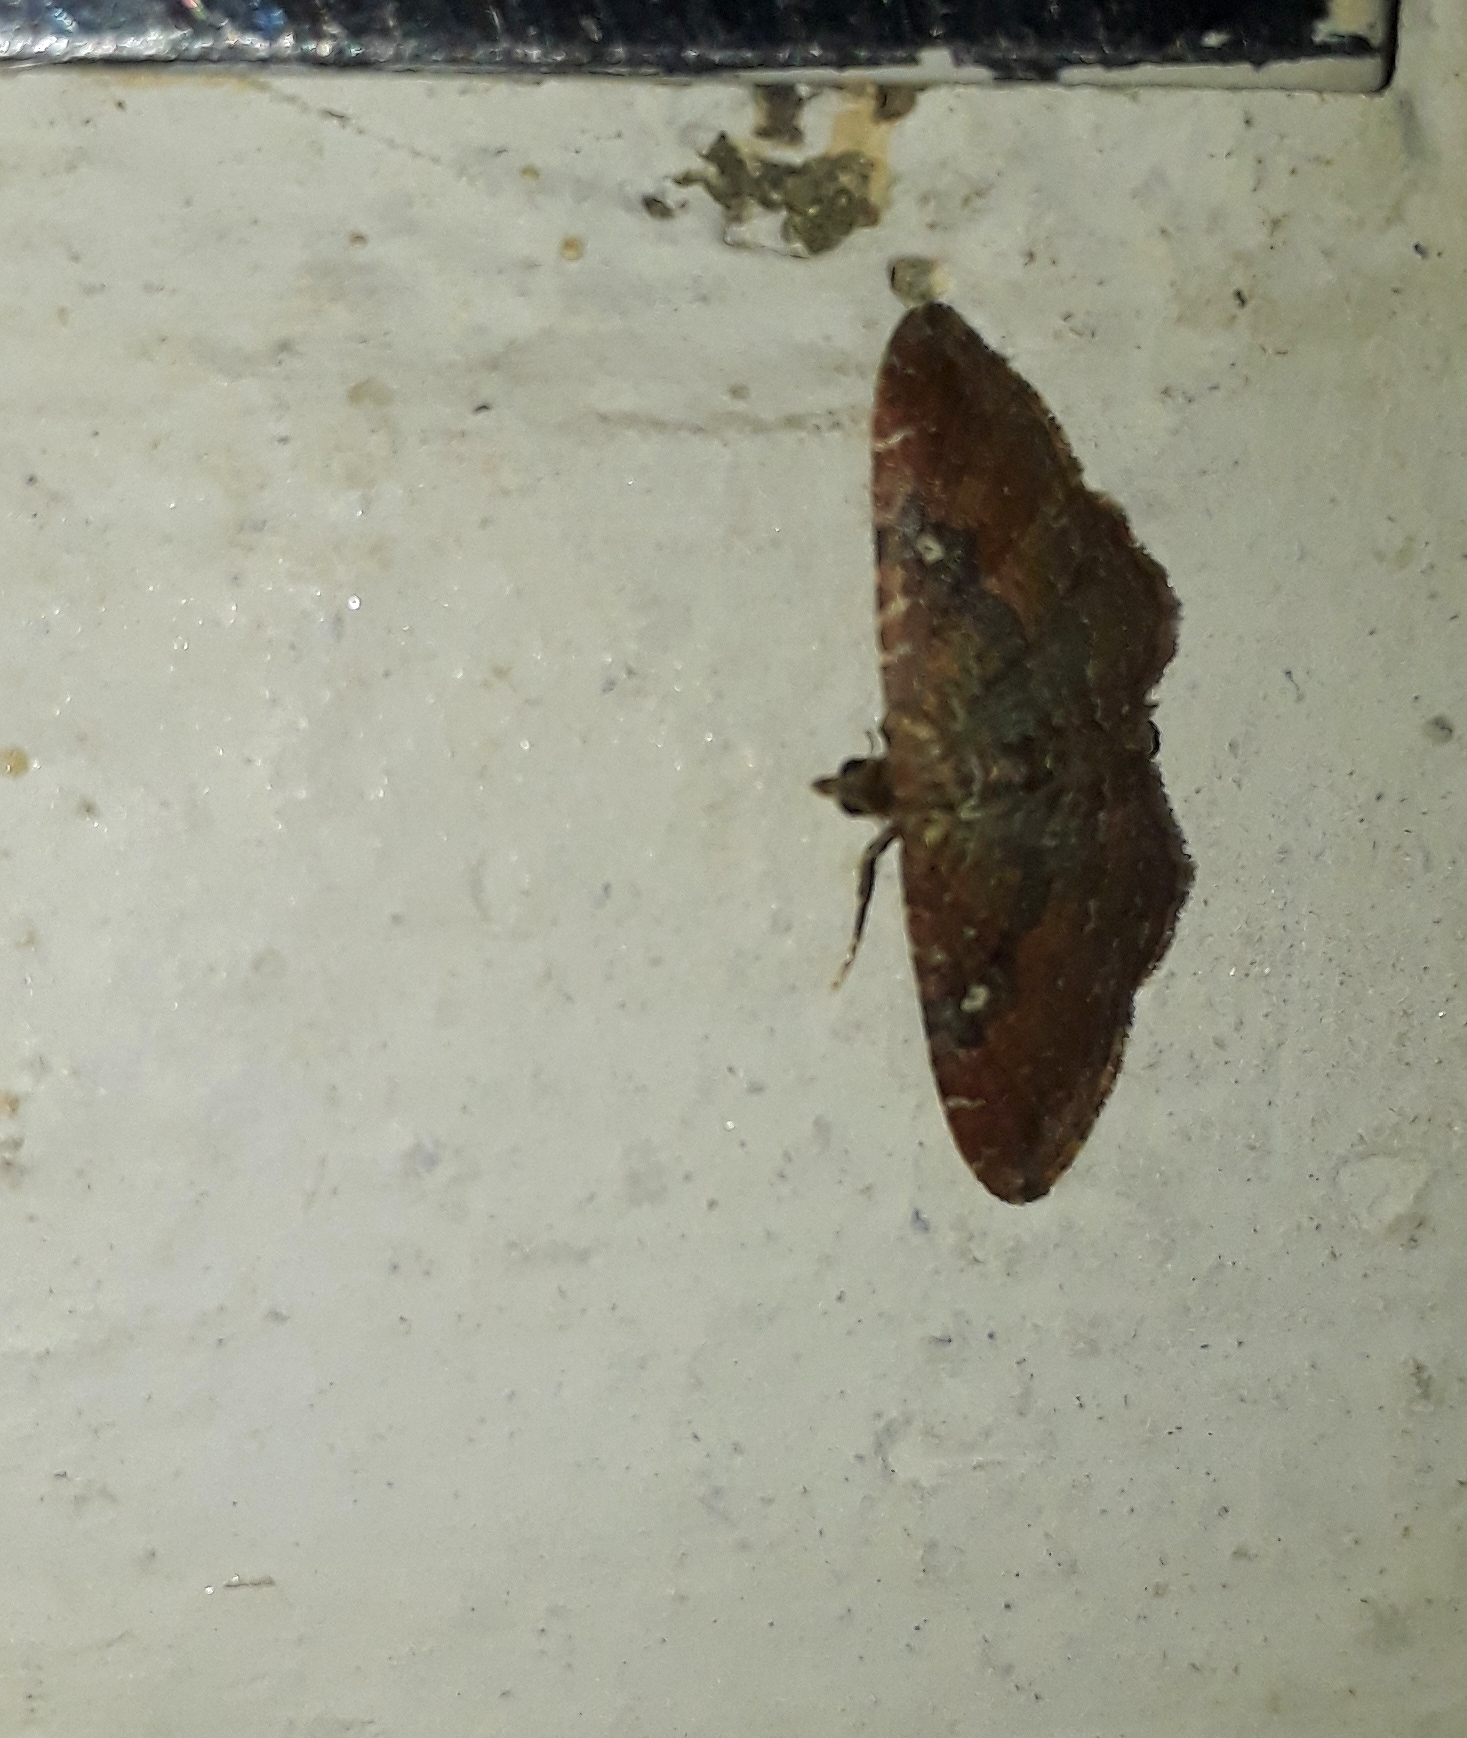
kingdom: Animalia
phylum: Arthropoda
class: Insecta
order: Lepidoptera
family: Geometridae
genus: Orthonama
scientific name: Orthonama obstipata
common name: The gem
